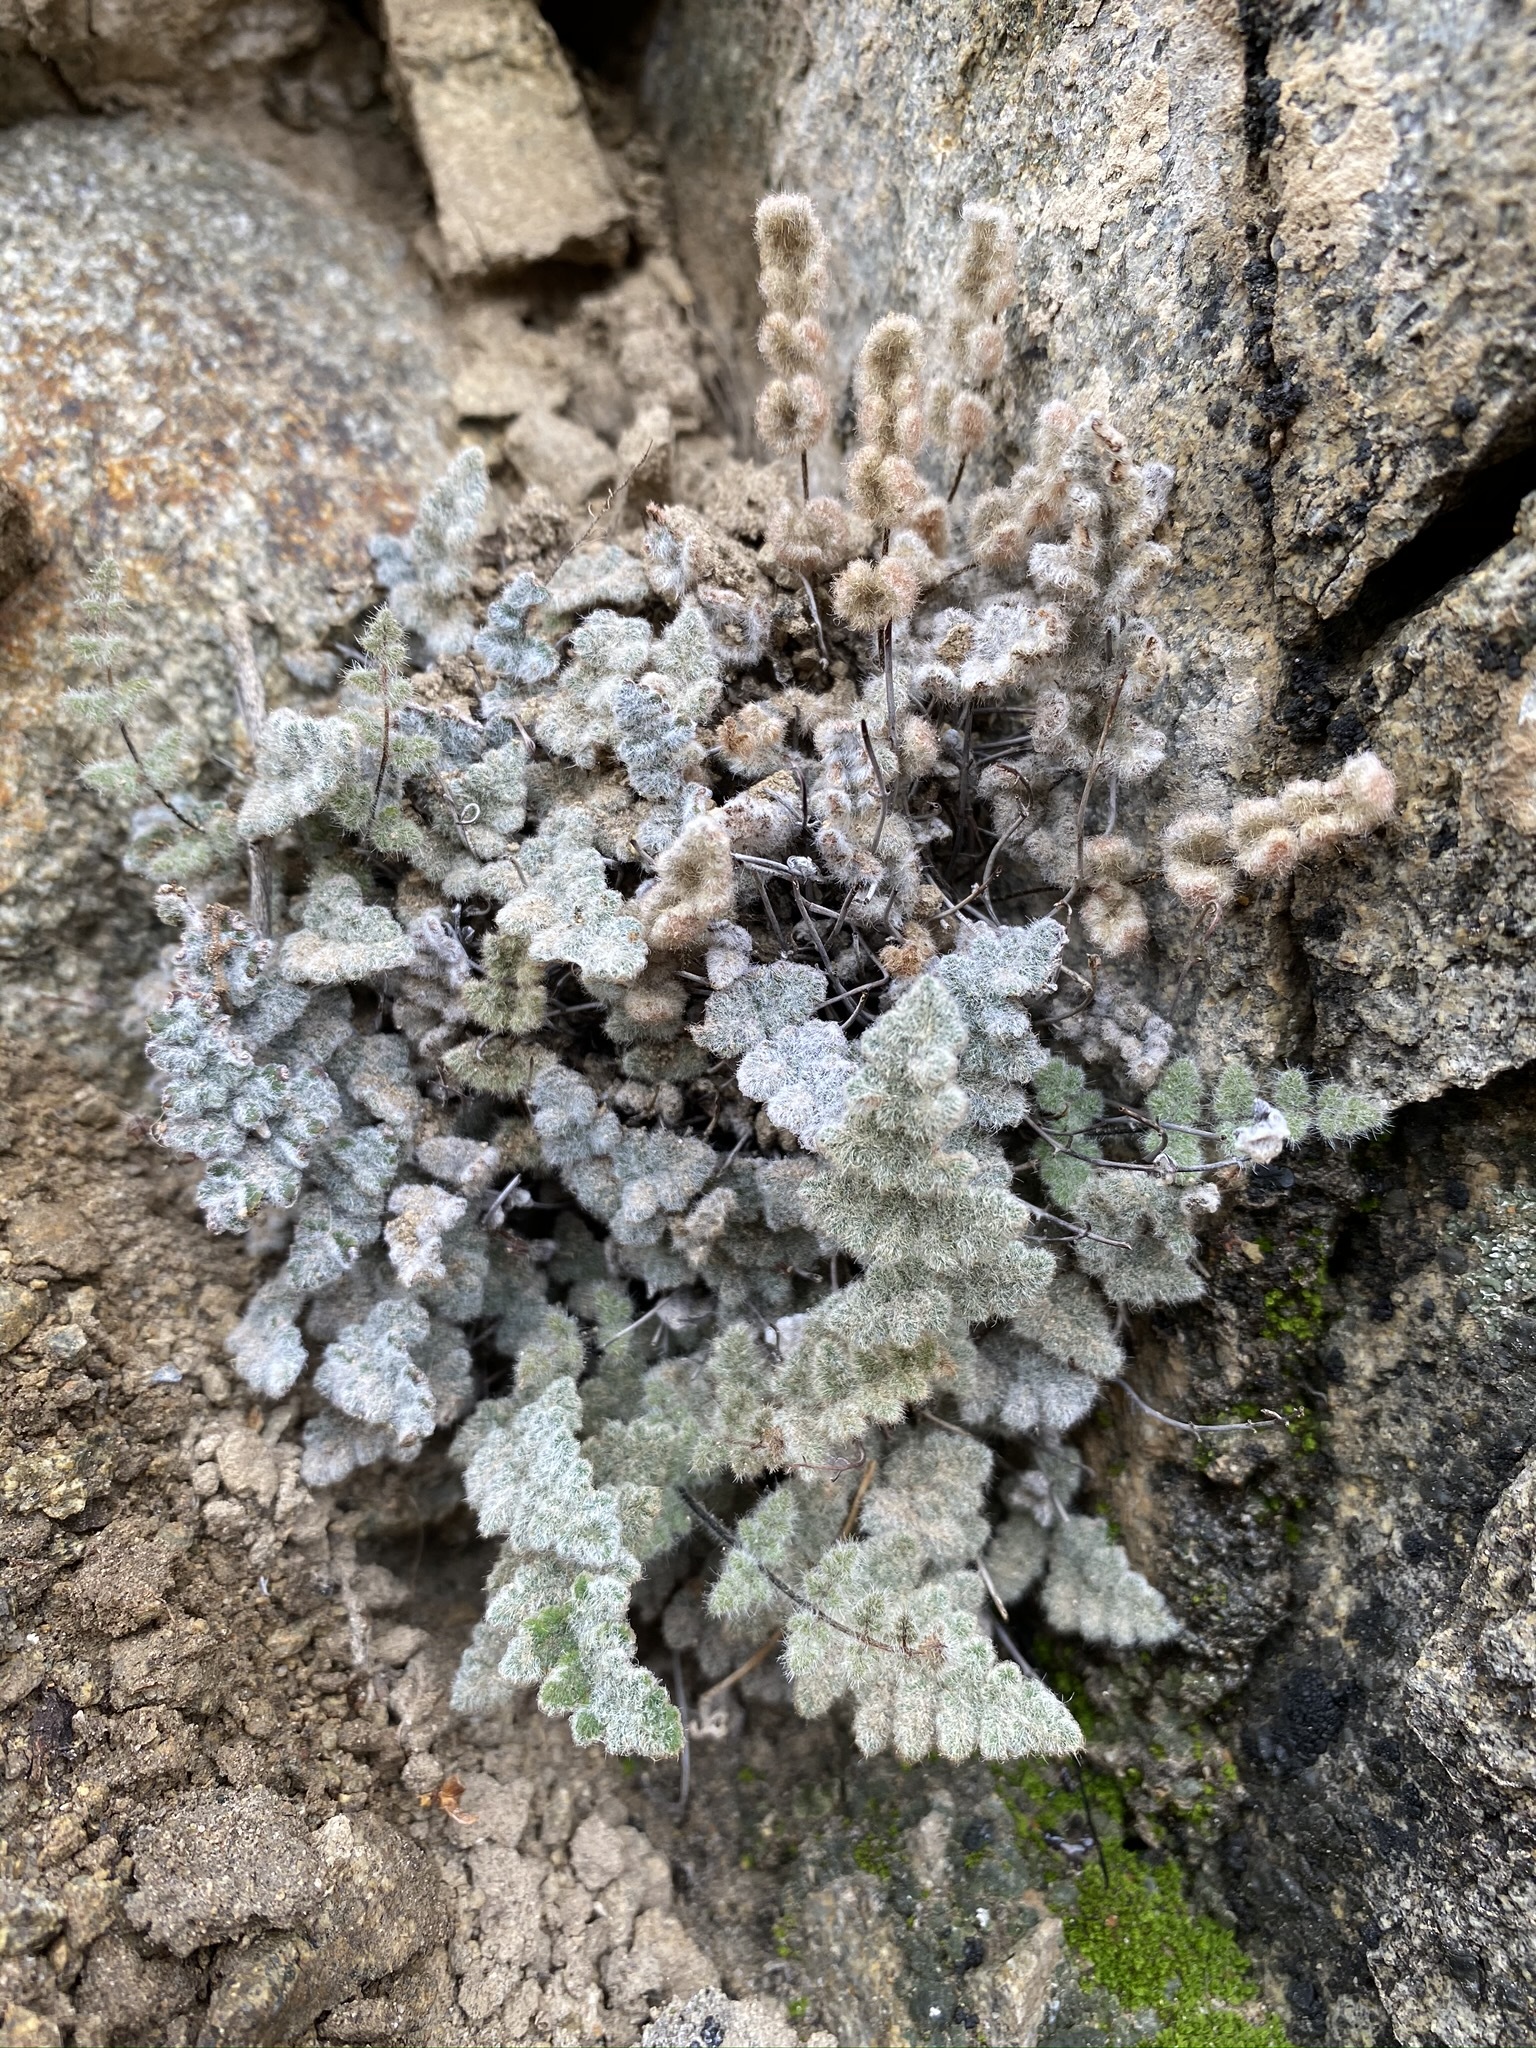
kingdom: Plantae
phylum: Tracheophyta
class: Polypodiopsida
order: Polypodiales
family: Pteridaceae
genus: Myriopteris
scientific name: Myriopteris parryi
